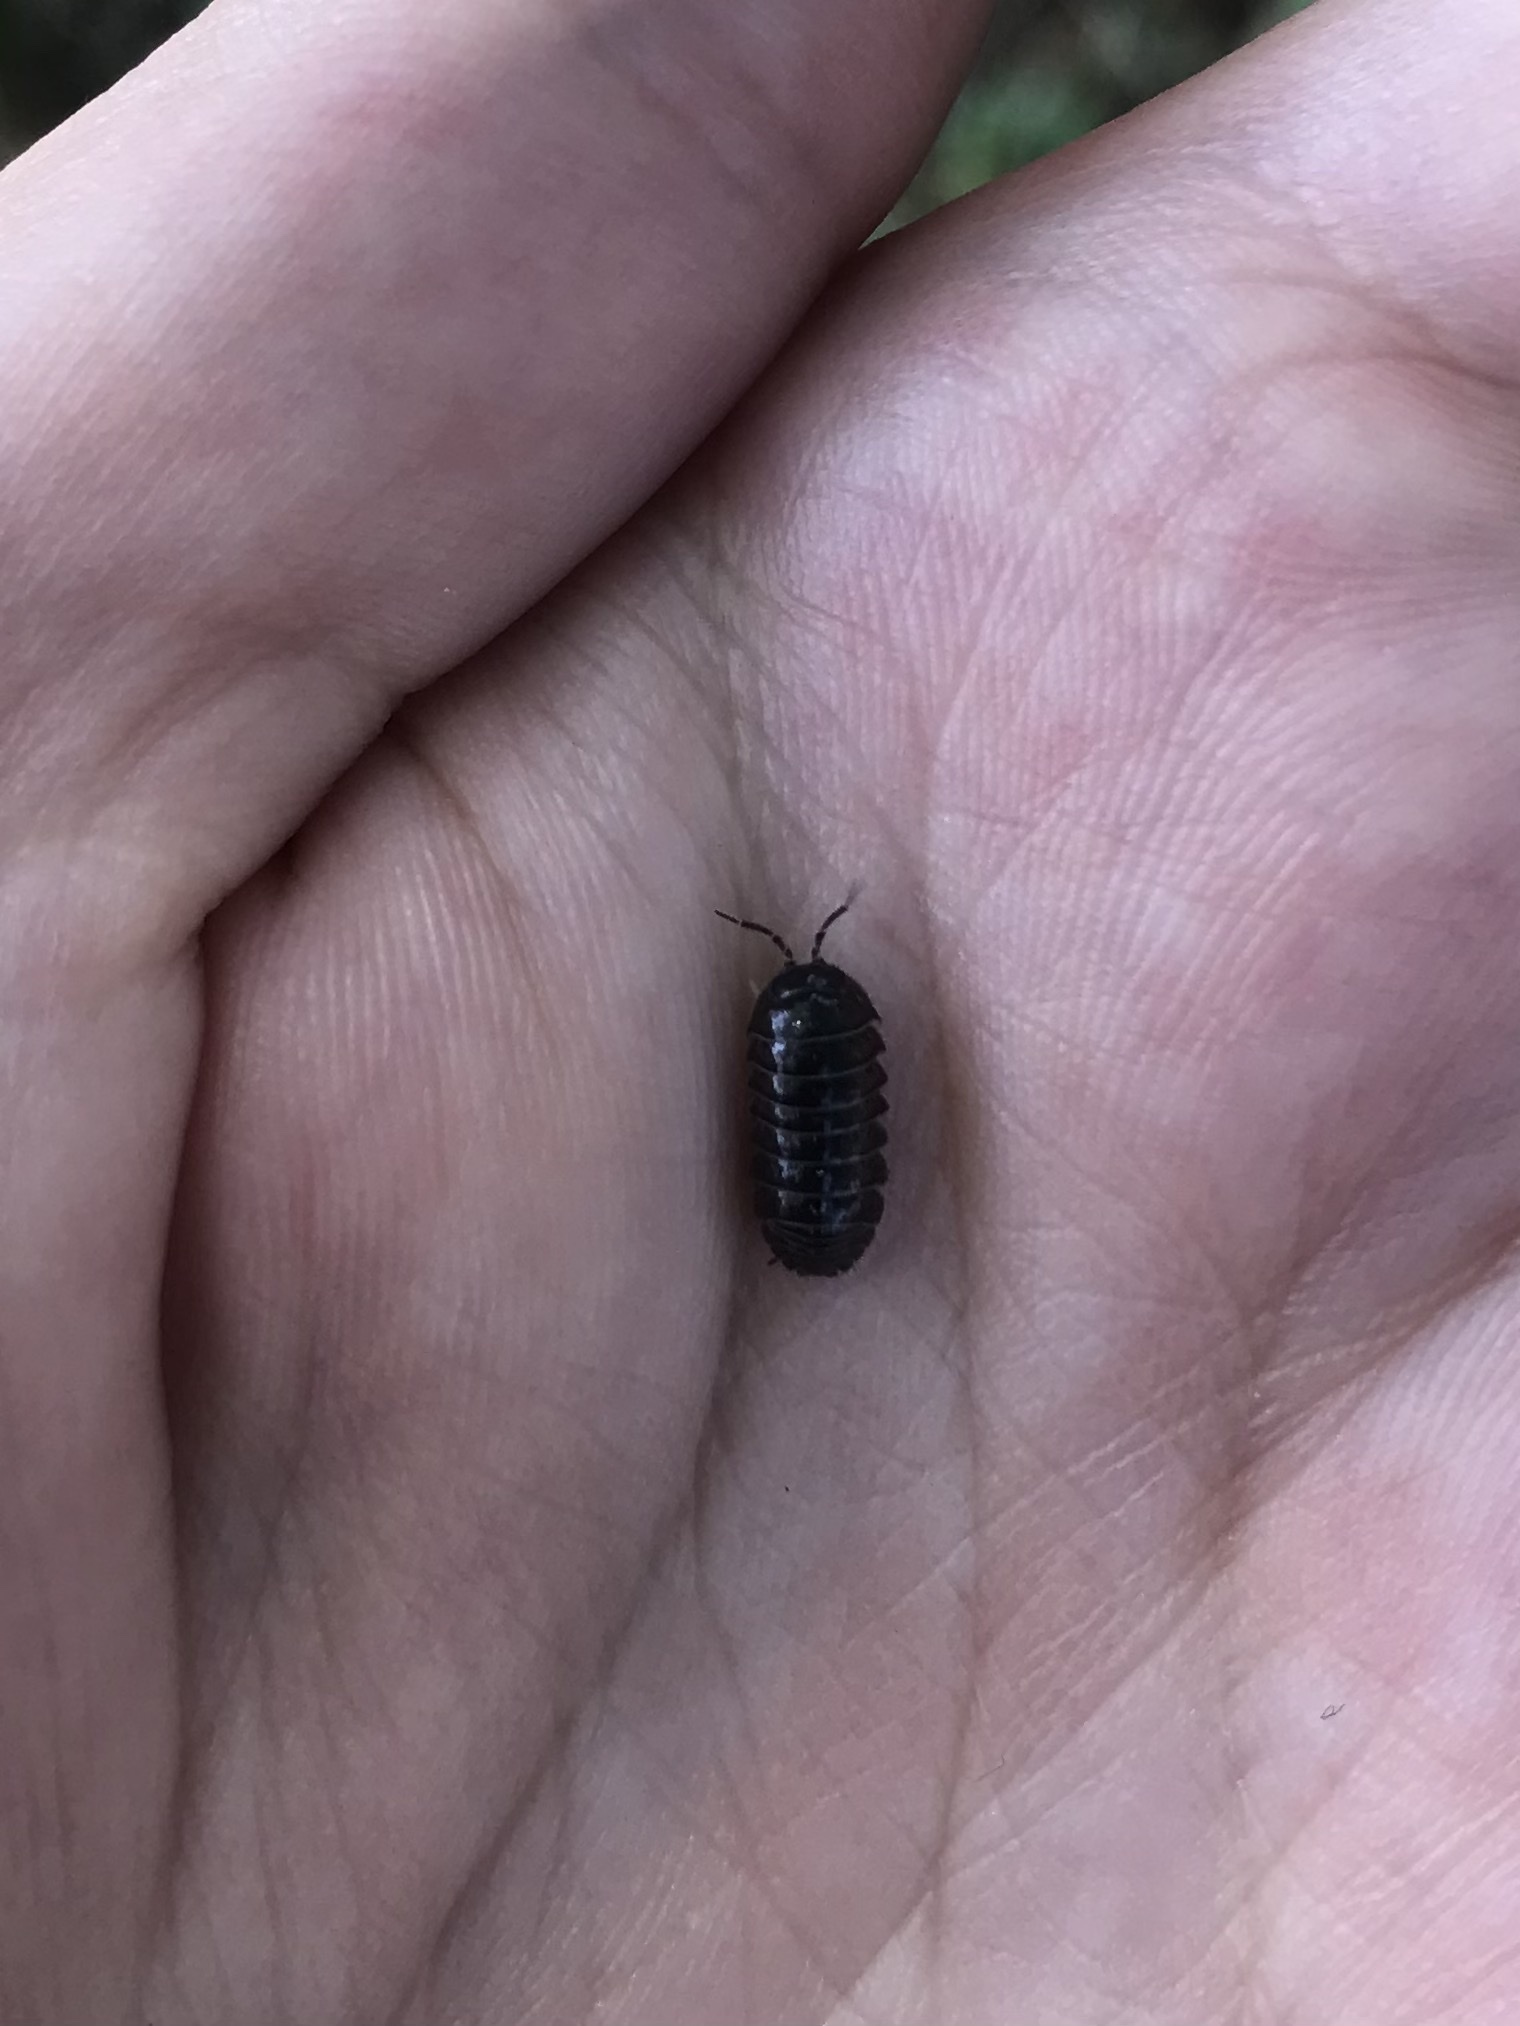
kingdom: Animalia
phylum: Arthropoda
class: Malacostraca
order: Isopoda
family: Armadillidiidae
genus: Armadillidium
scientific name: Armadillidium vulgare
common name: Common pill woodlouse
